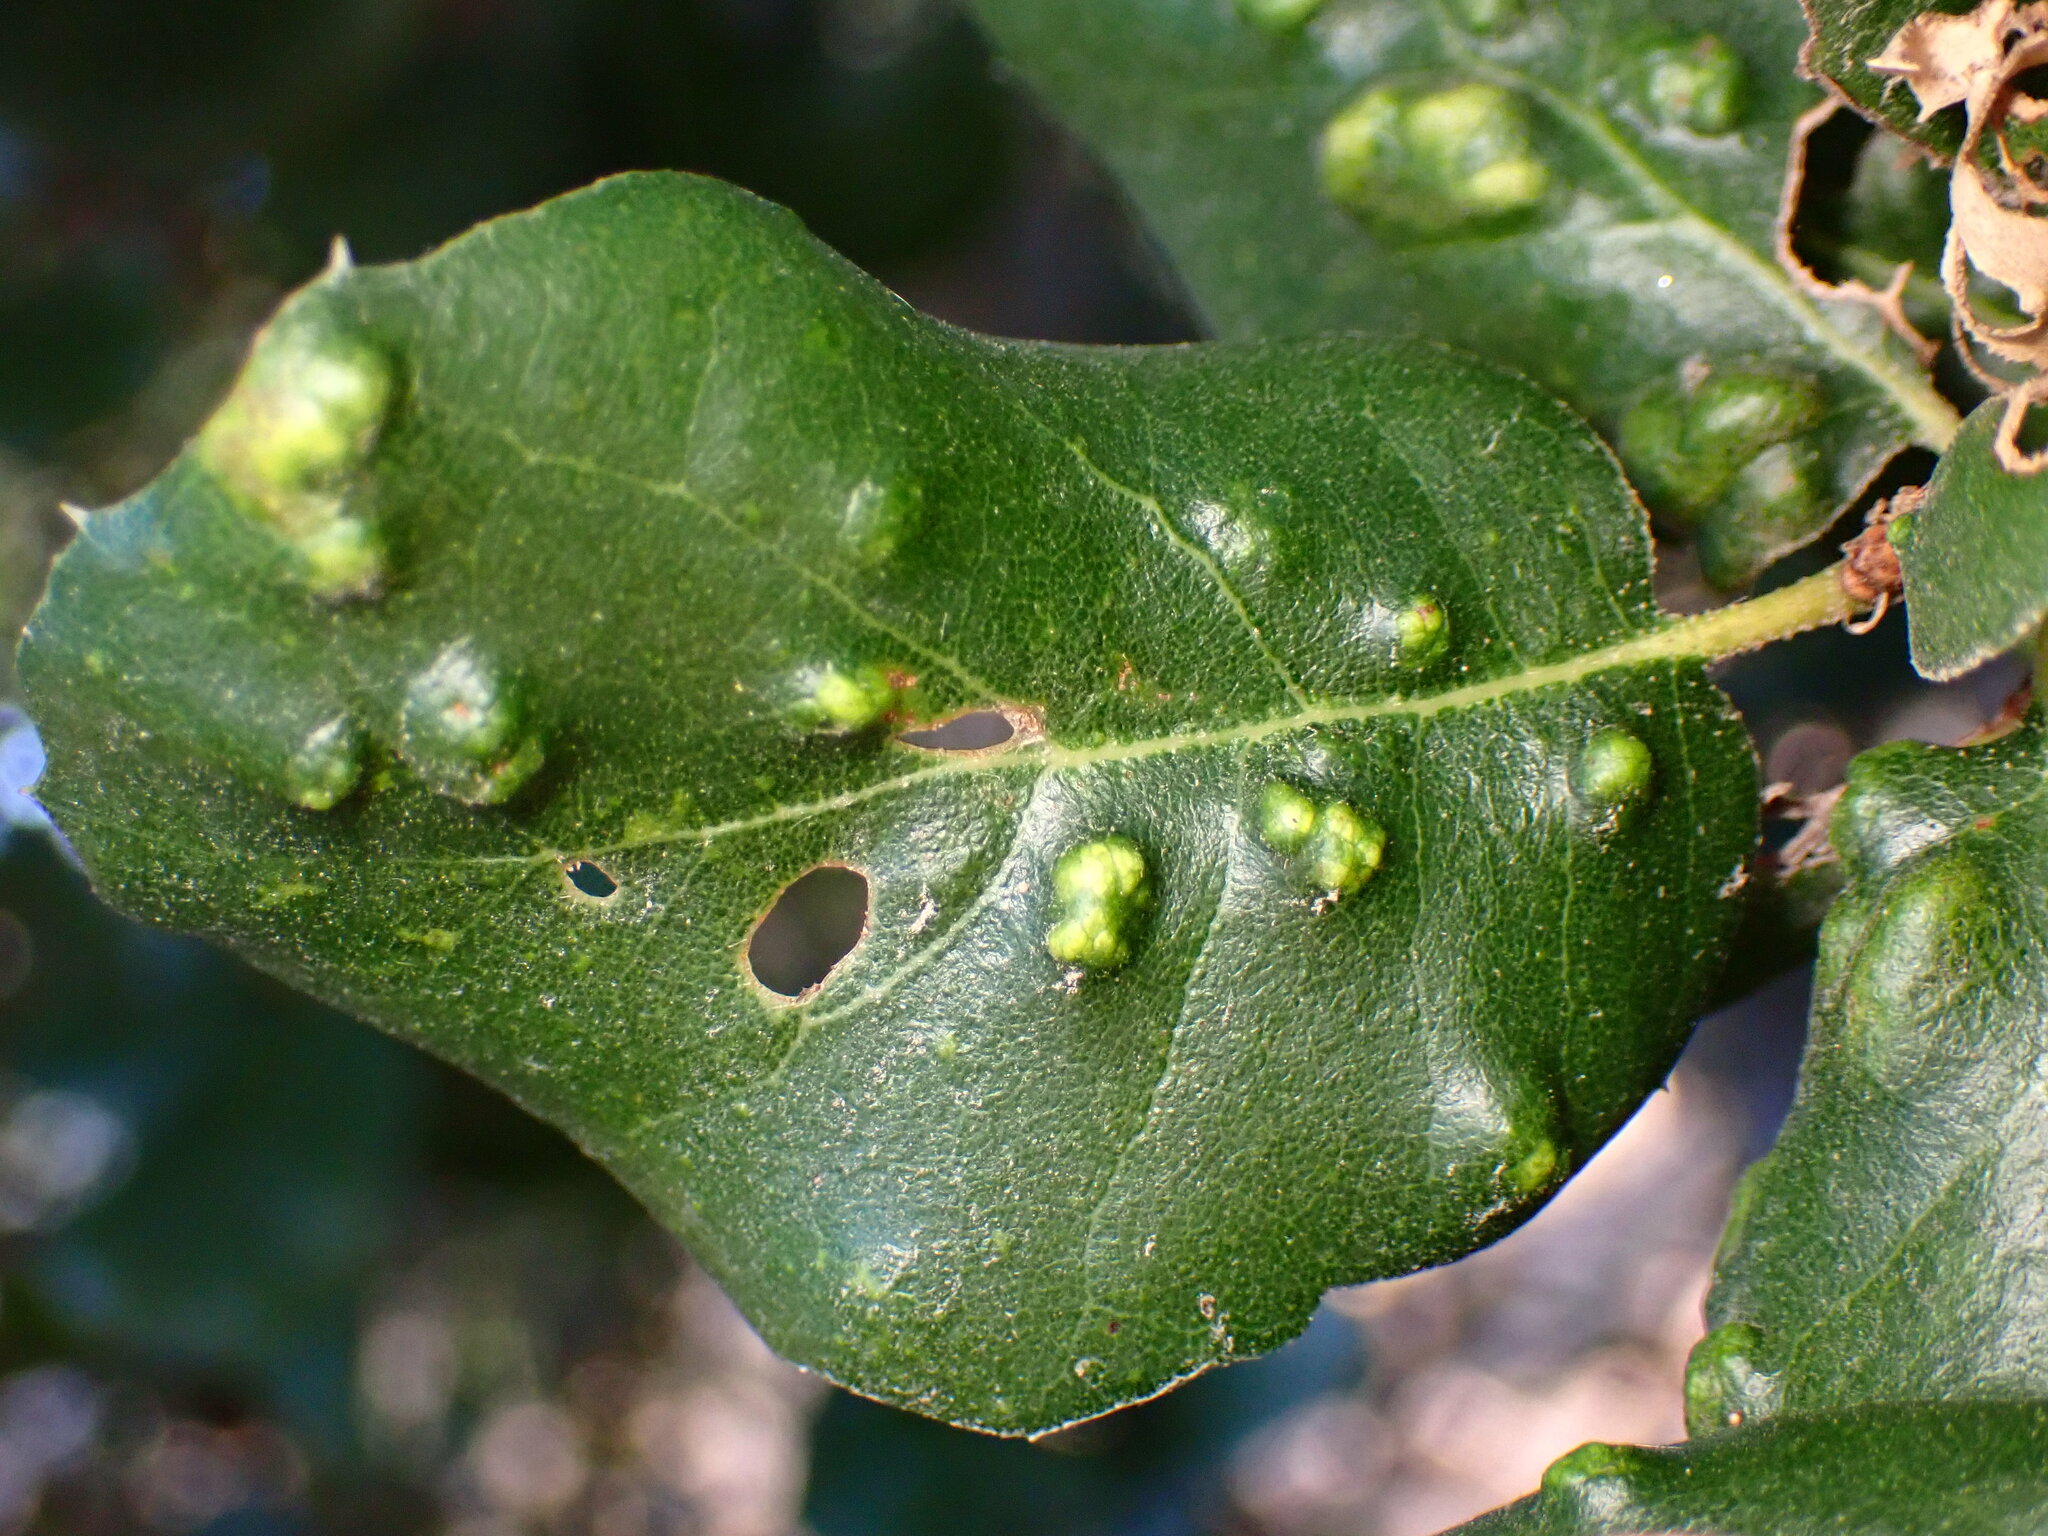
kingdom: Animalia
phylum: Arthropoda
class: Arachnida
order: Trombidiformes
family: Eriophyidae
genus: Aceria
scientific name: Aceria
